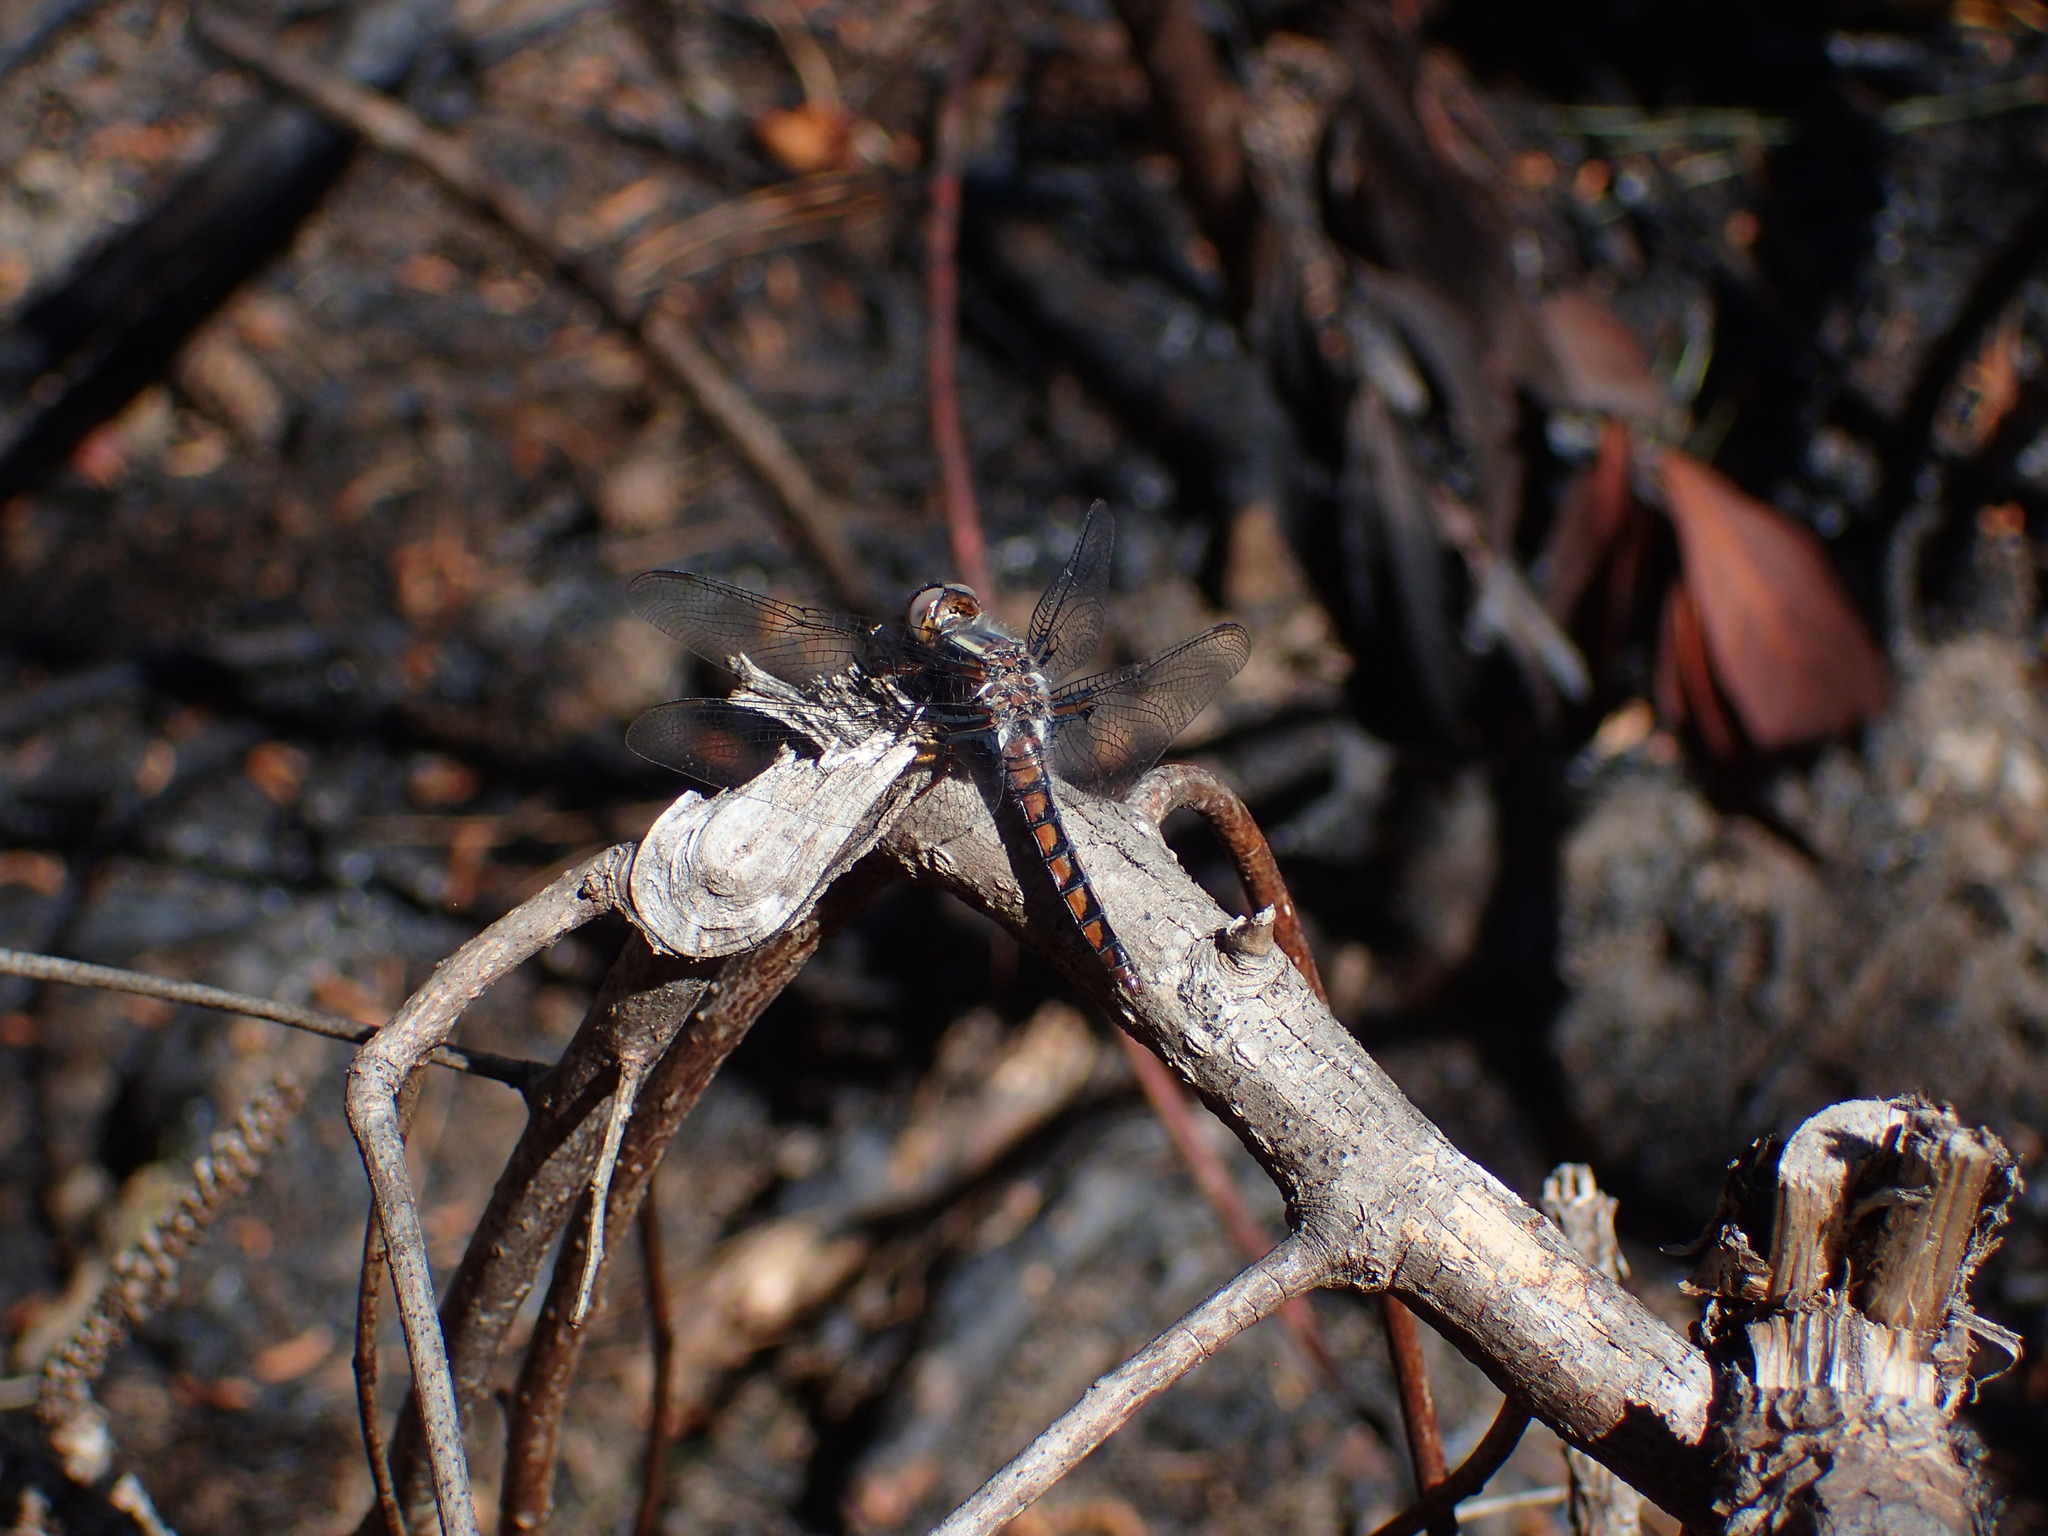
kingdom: Animalia
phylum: Arthropoda
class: Insecta
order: Odonata
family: Libellulidae
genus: Ladona
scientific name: Ladona deplanata
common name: Blue corporal
